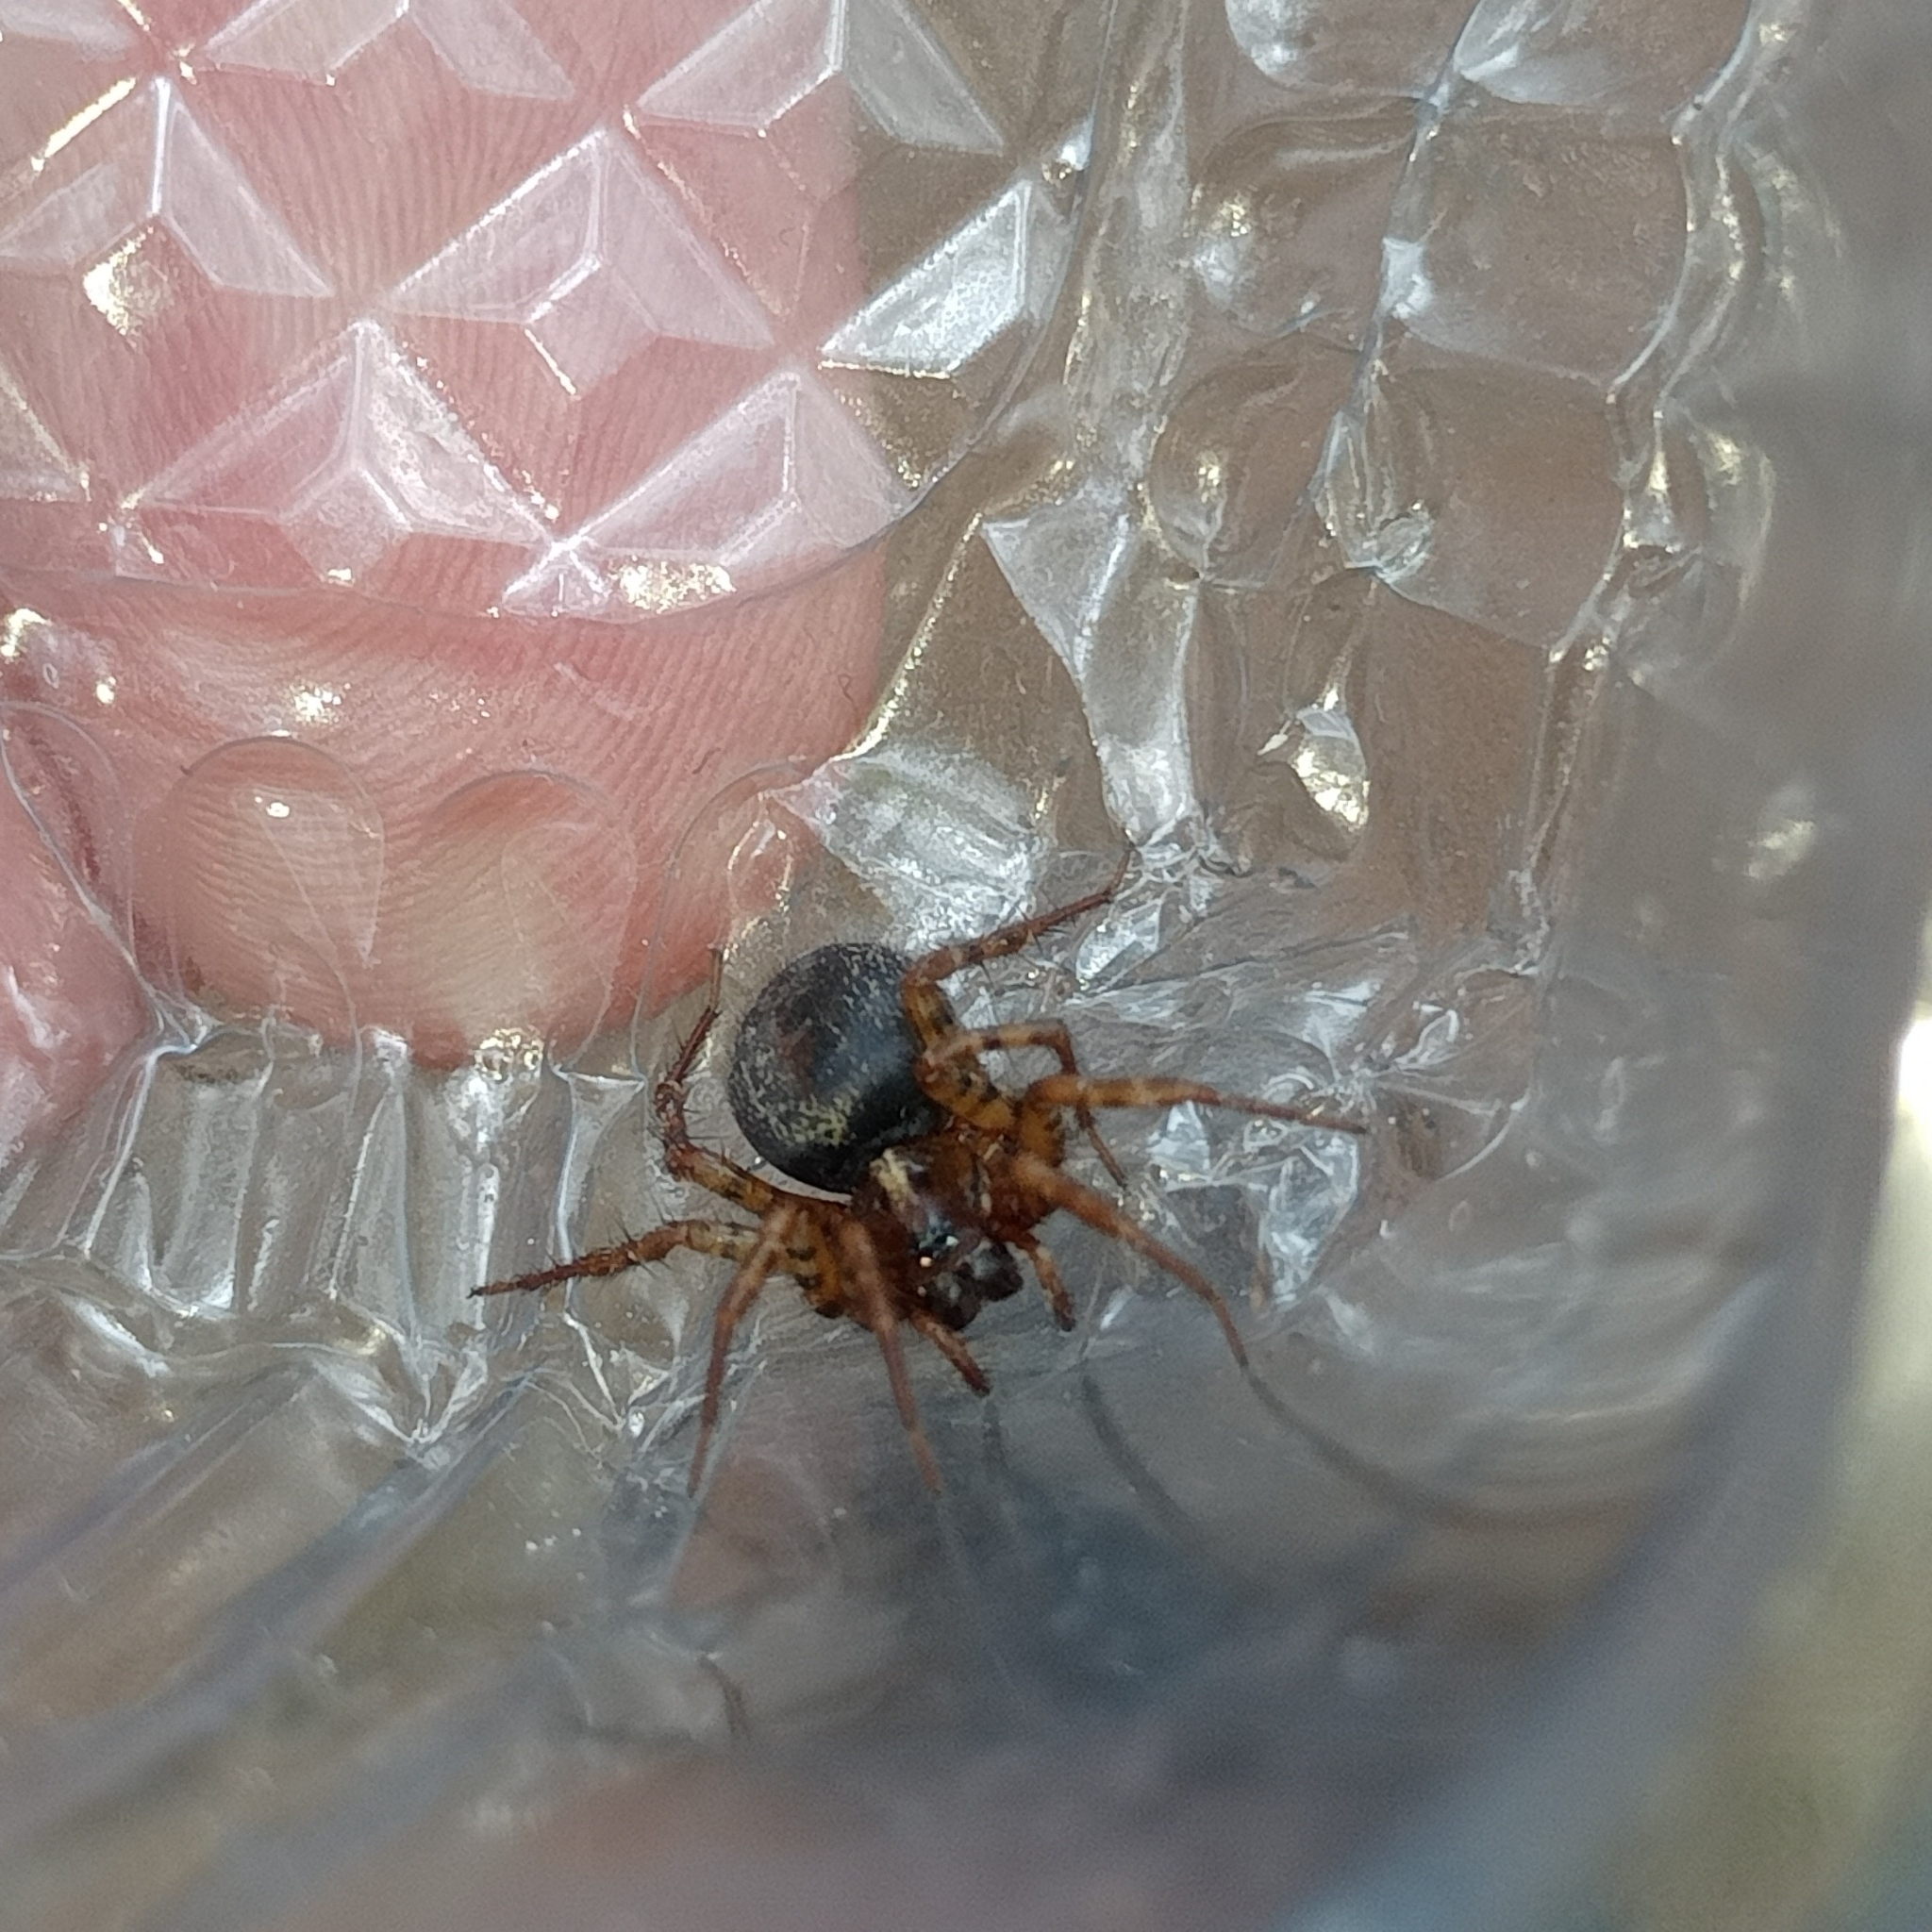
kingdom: Animalia
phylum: Arthropoda
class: Arachnida
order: Araneae
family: Agelenidae
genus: Lycosoides
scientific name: Lycosoides coarctata
